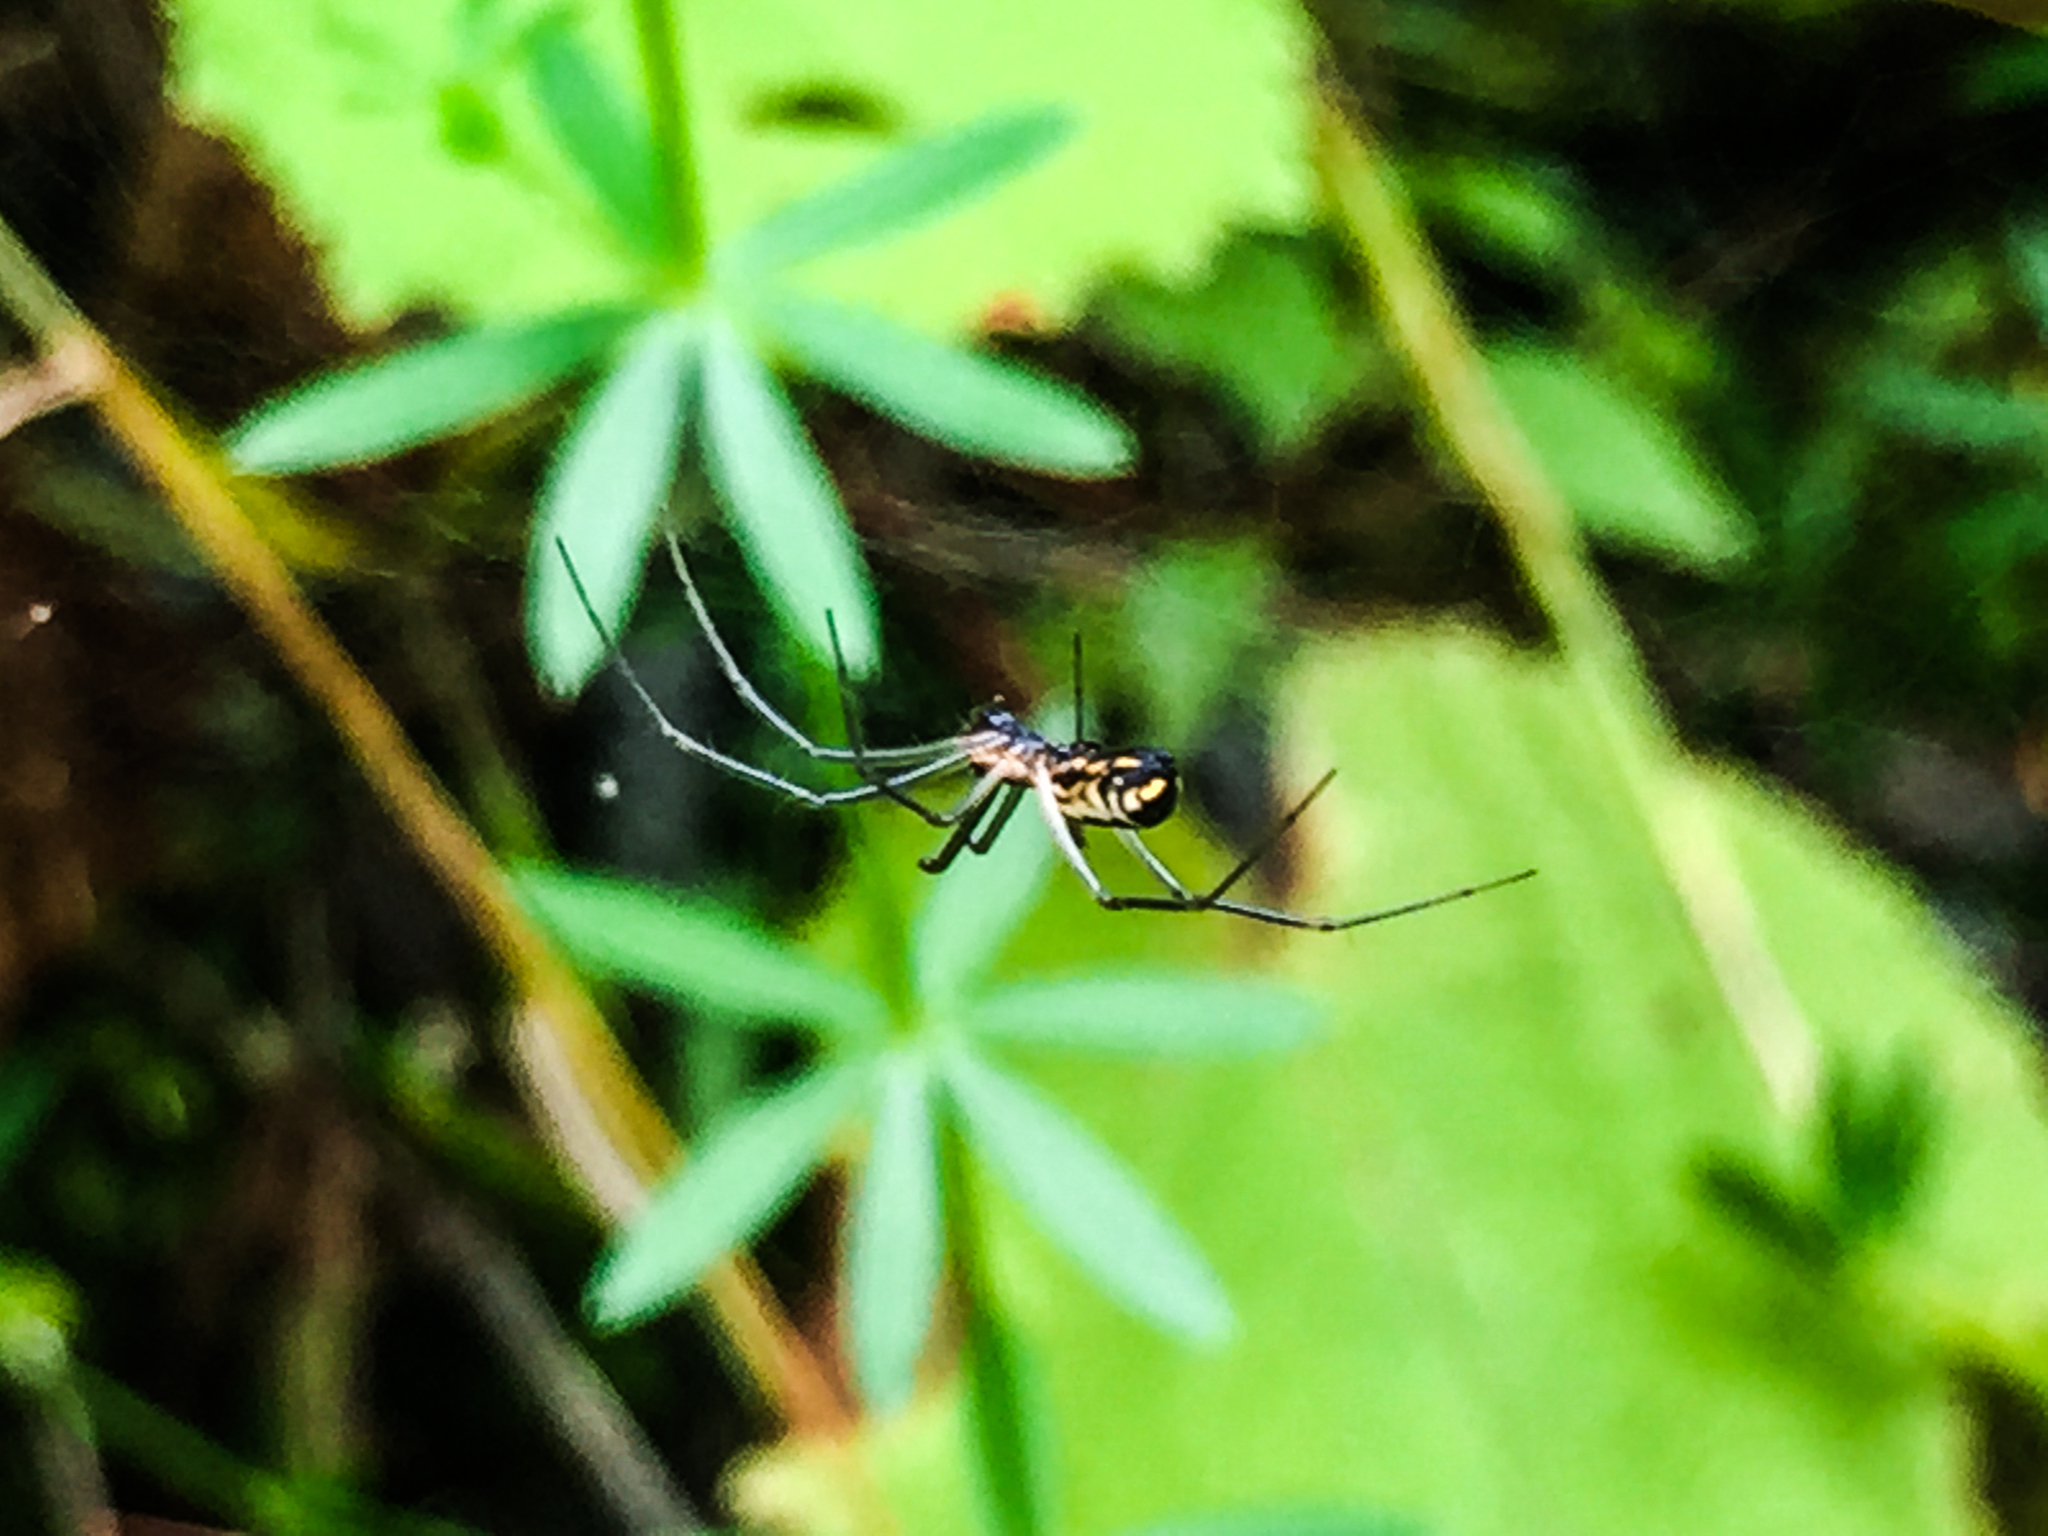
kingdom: Animalia
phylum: Arthropoda
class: Arachnida
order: Araneae
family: Araneidae
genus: Trichonephila
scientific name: Trichonephila clavata
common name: Jorō spider
